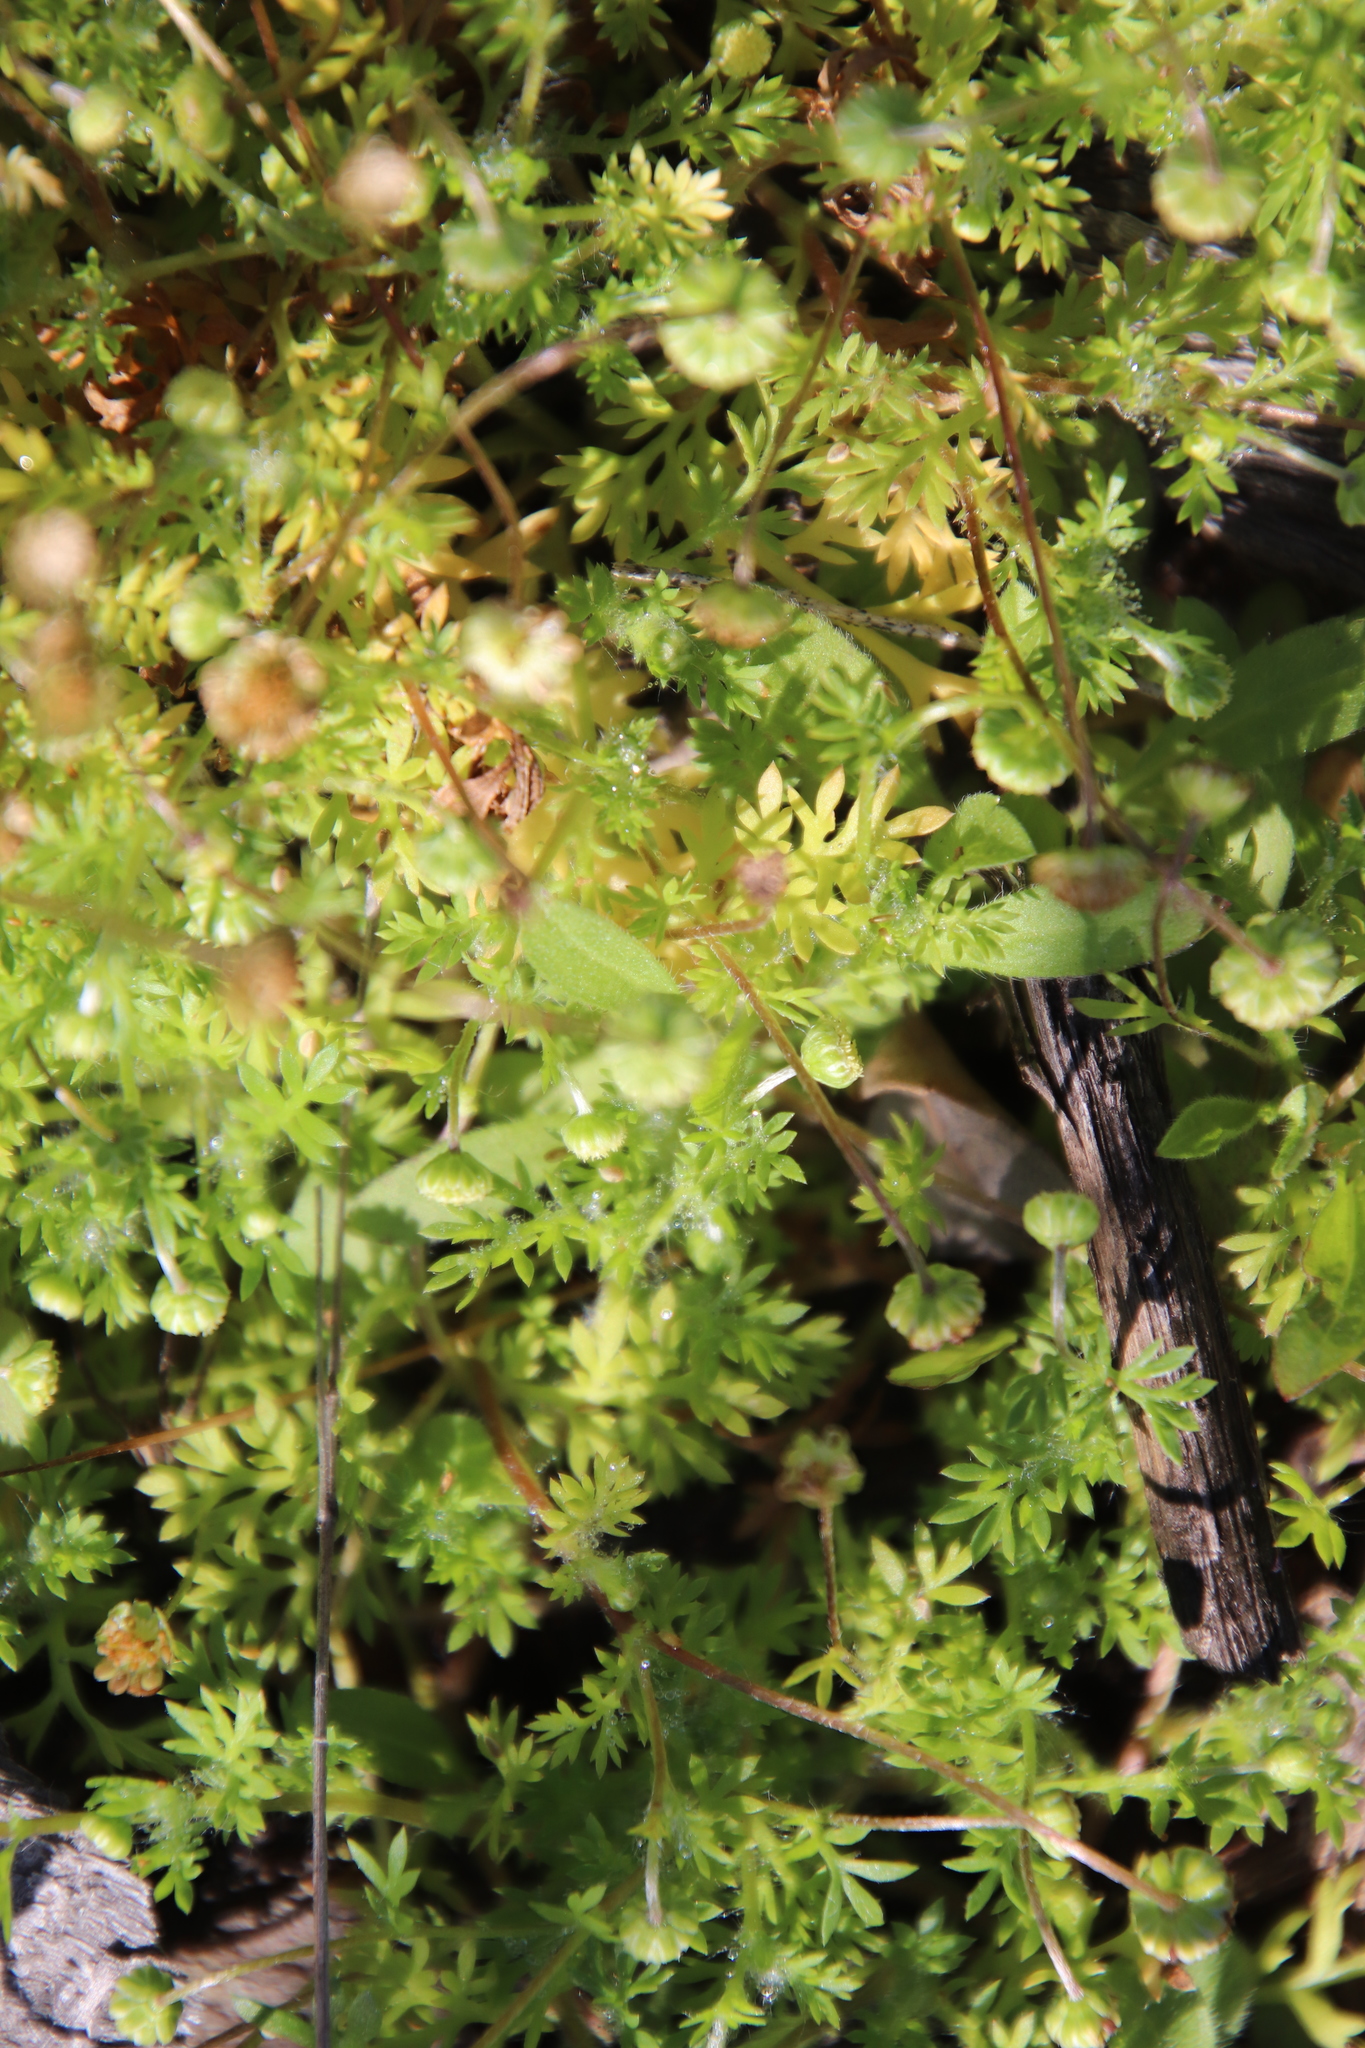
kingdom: Plantae
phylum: Tracheophyta
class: Magnoliopsida
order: Asterales
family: Asteraceae
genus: Cotula
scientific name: Cotula australis
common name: Australian waterbuttons
